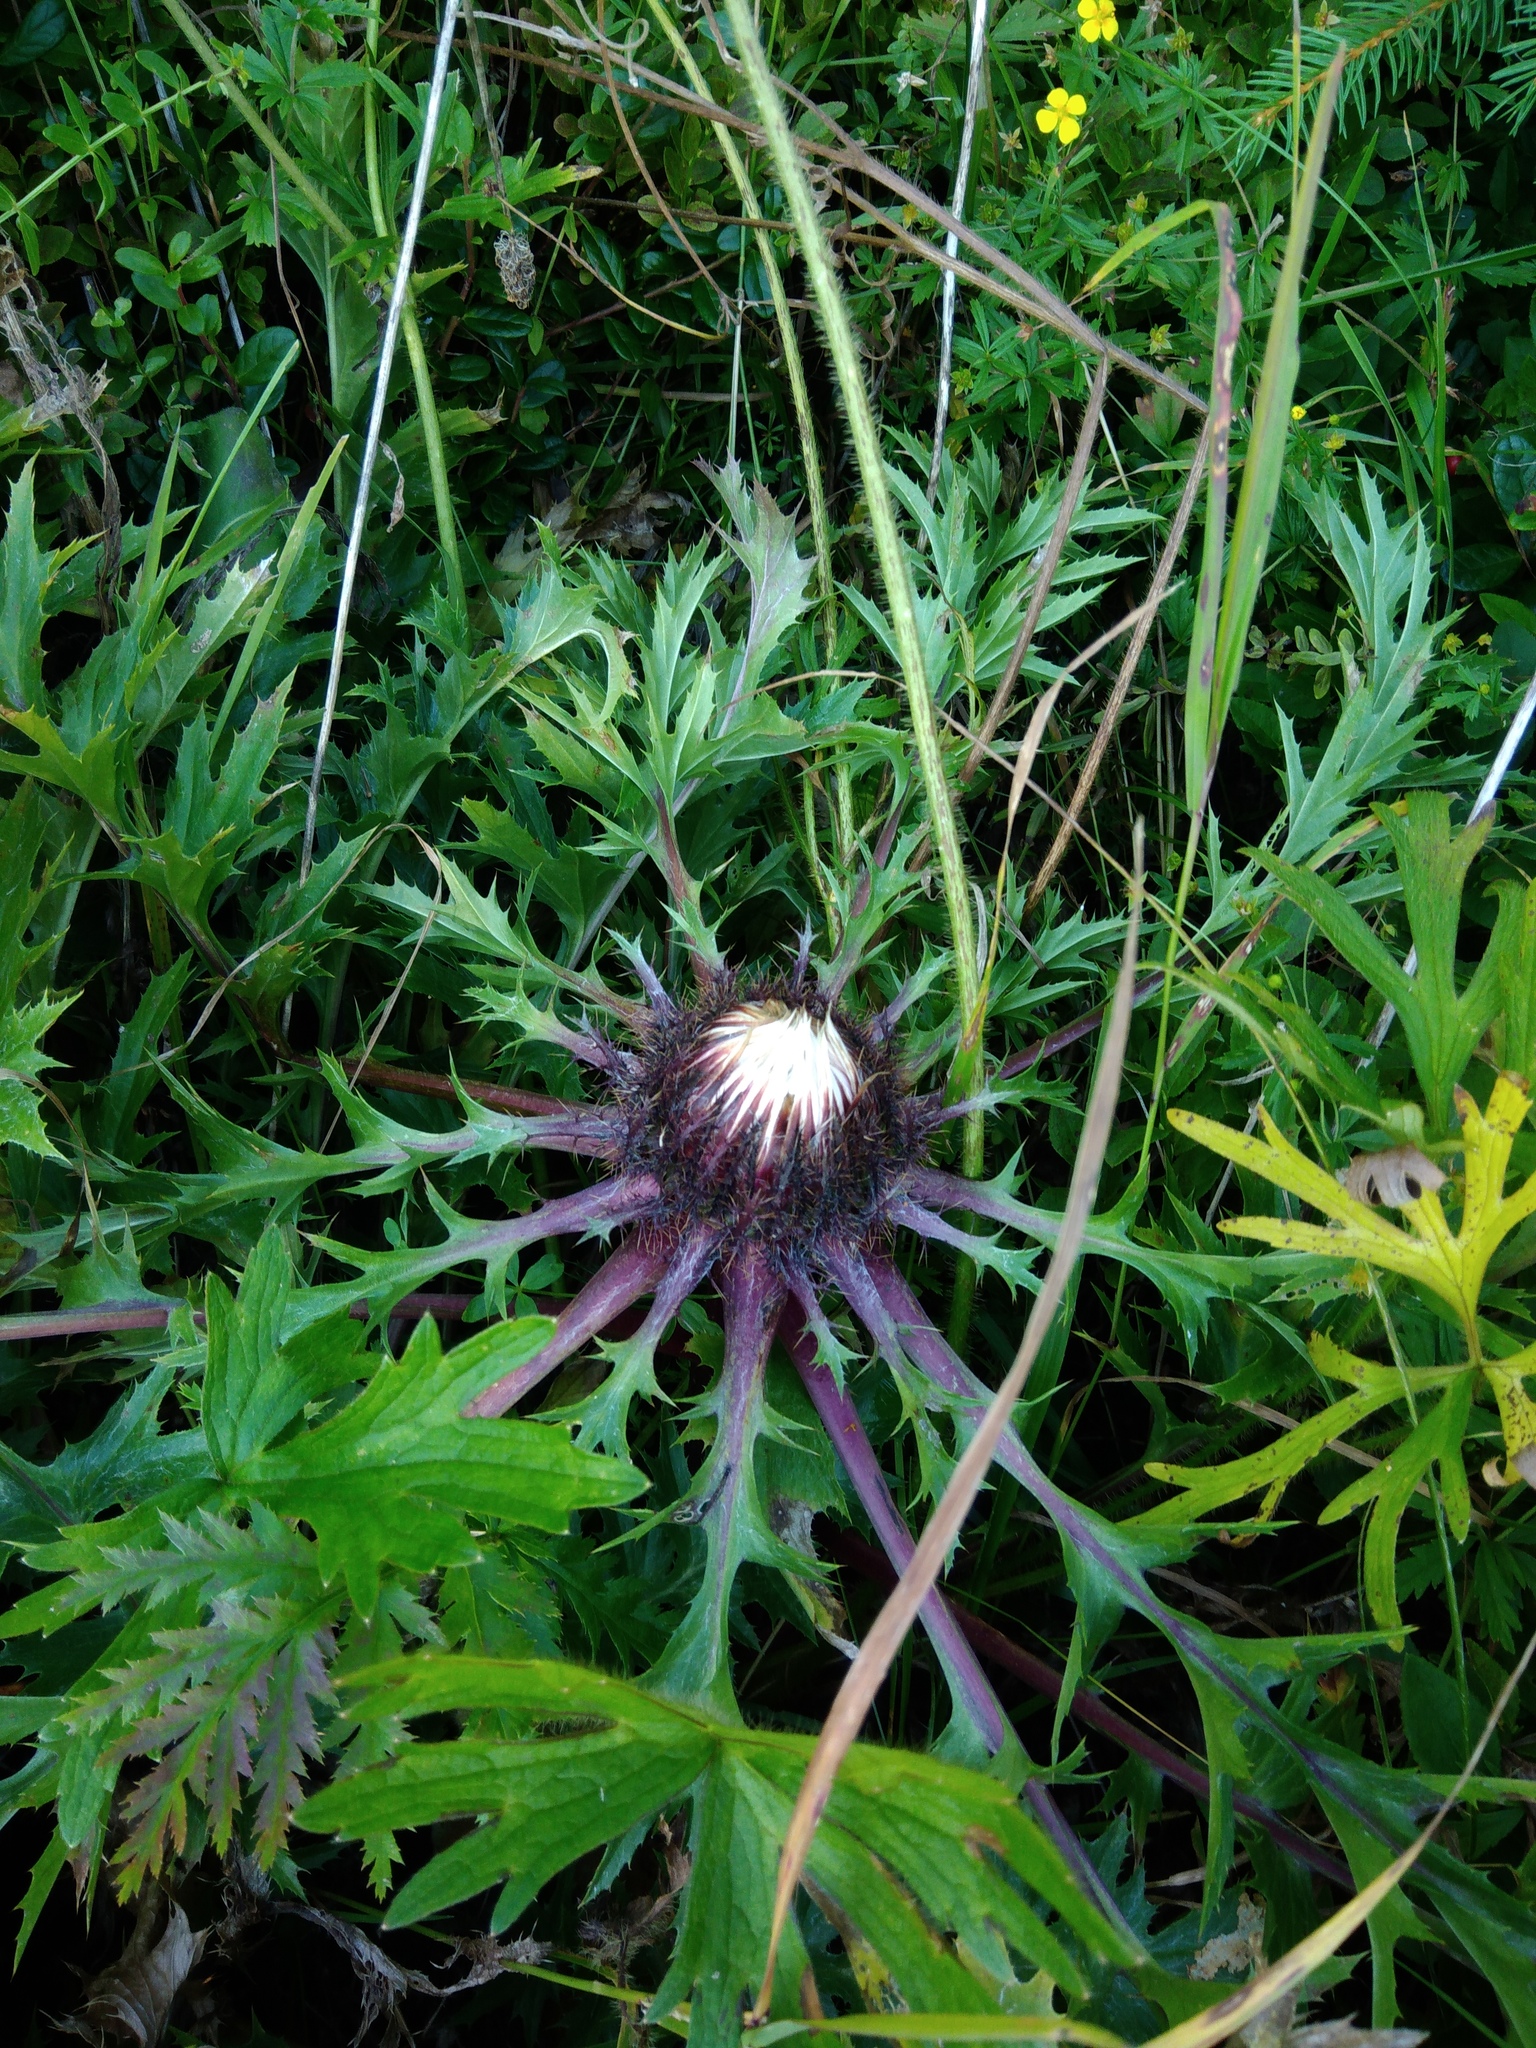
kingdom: Plantae
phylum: Tracheophyta
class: Magnoliopsida
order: Asterales
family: Asteraceae
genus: Carlina
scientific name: Carlina acaulis
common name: Stemless carline thistle
